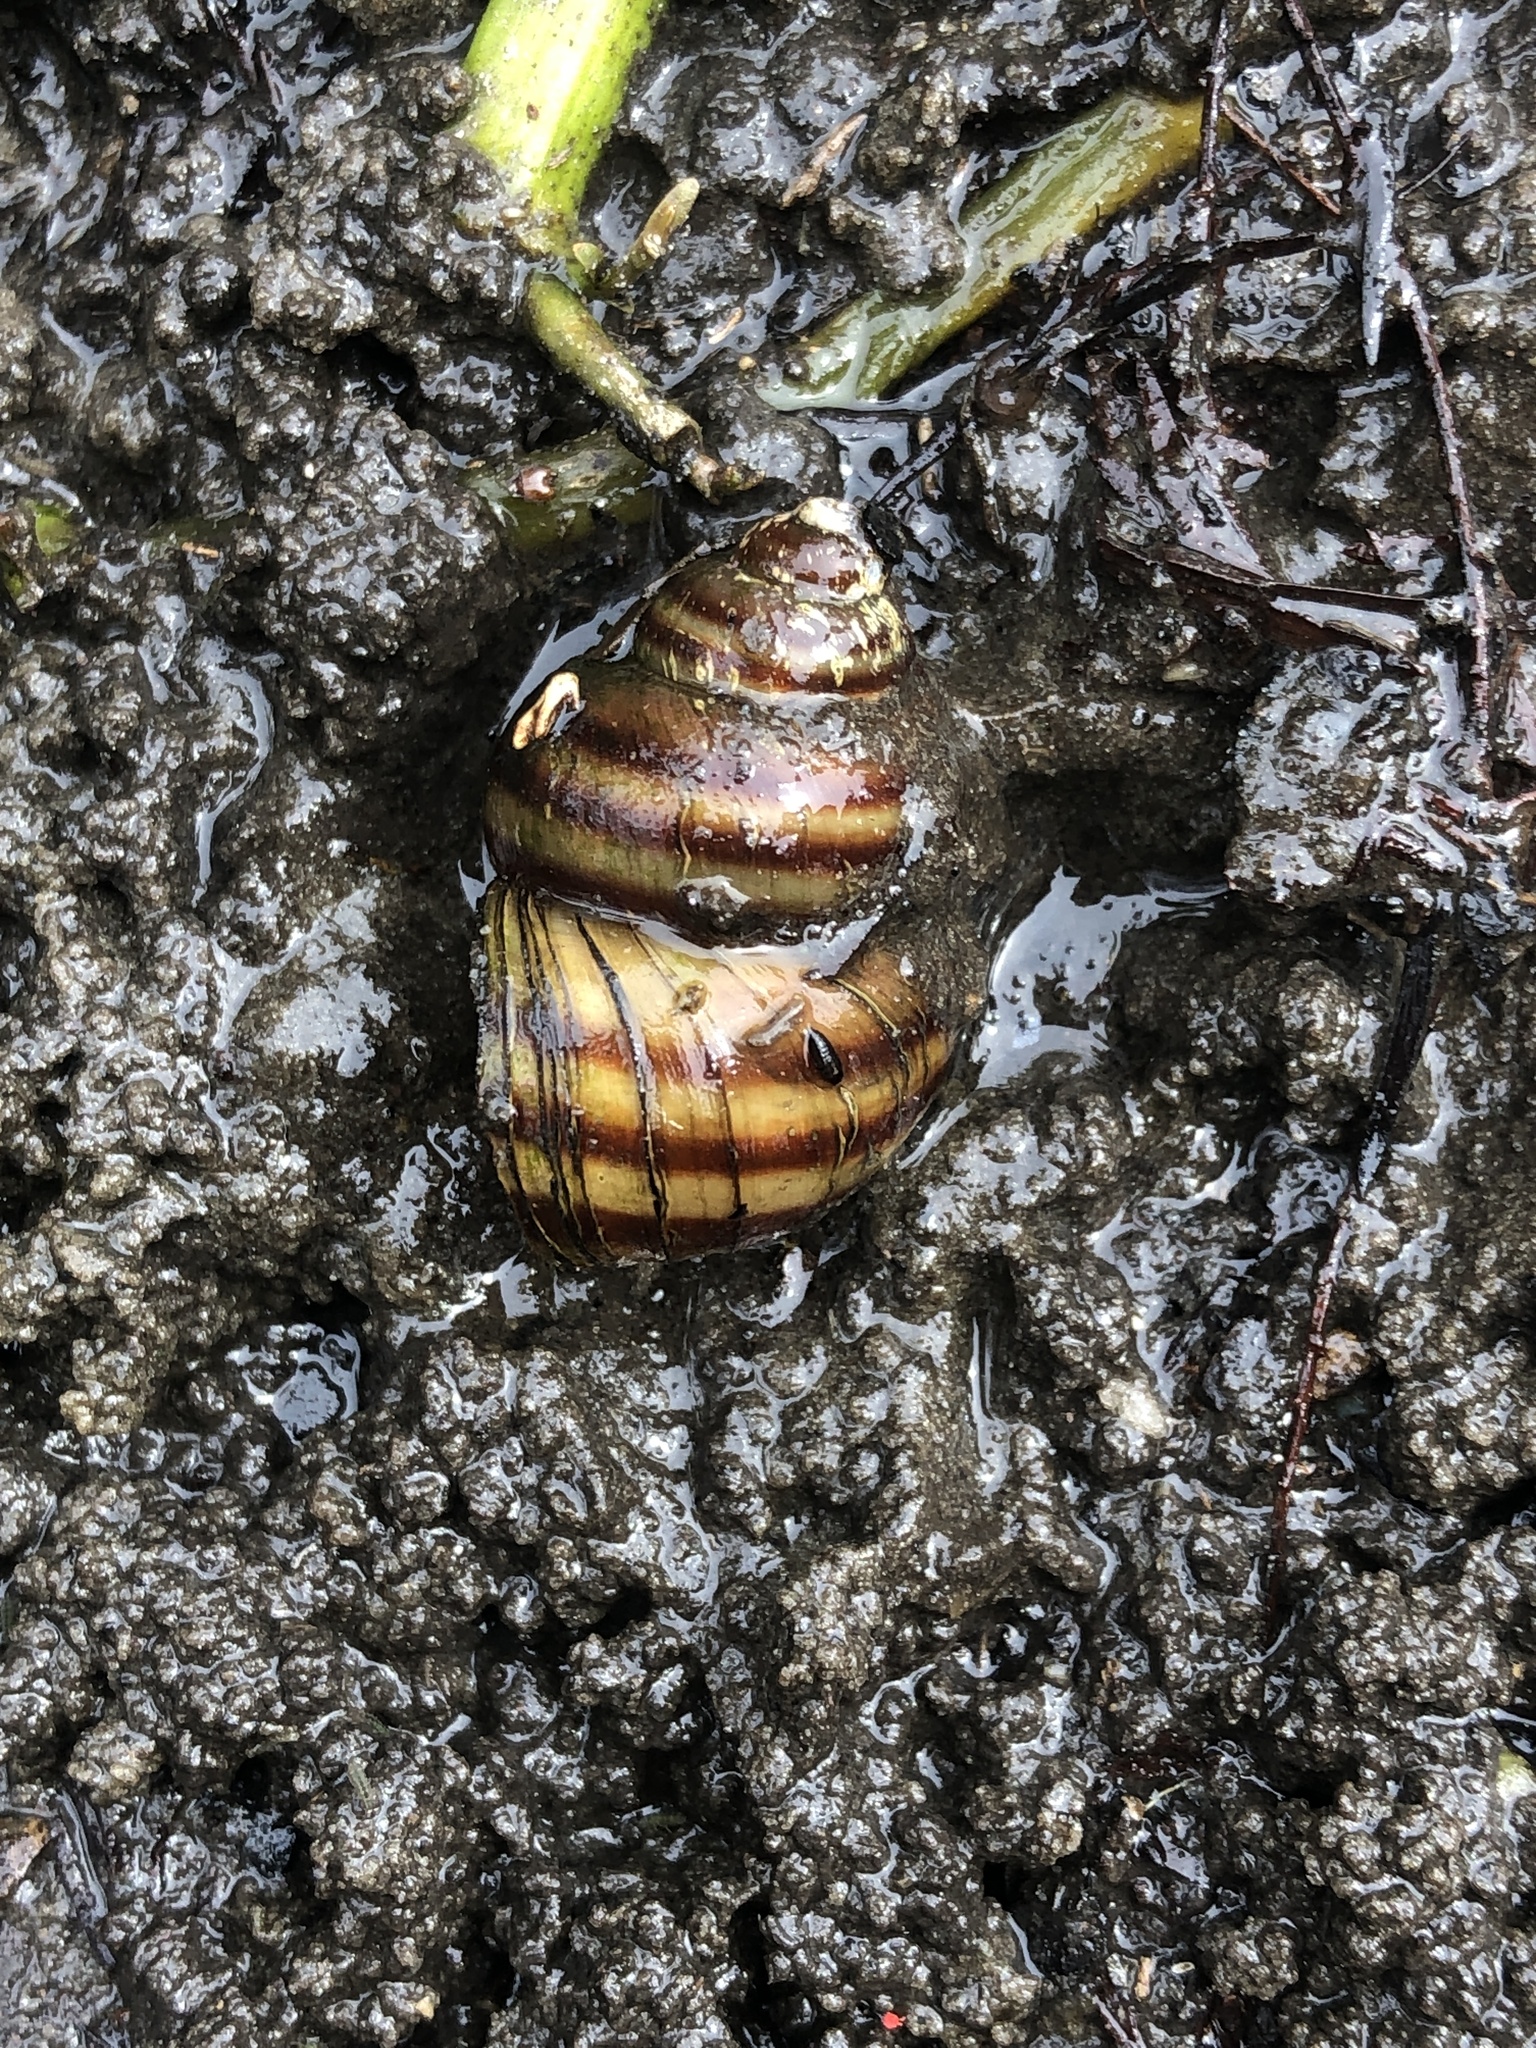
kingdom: Animalia
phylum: Mollusca
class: Gastropoda
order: Architaenioglossa
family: Viviparidae
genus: Callinina
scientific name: Callinina georgiana
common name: Banded mystery snail
